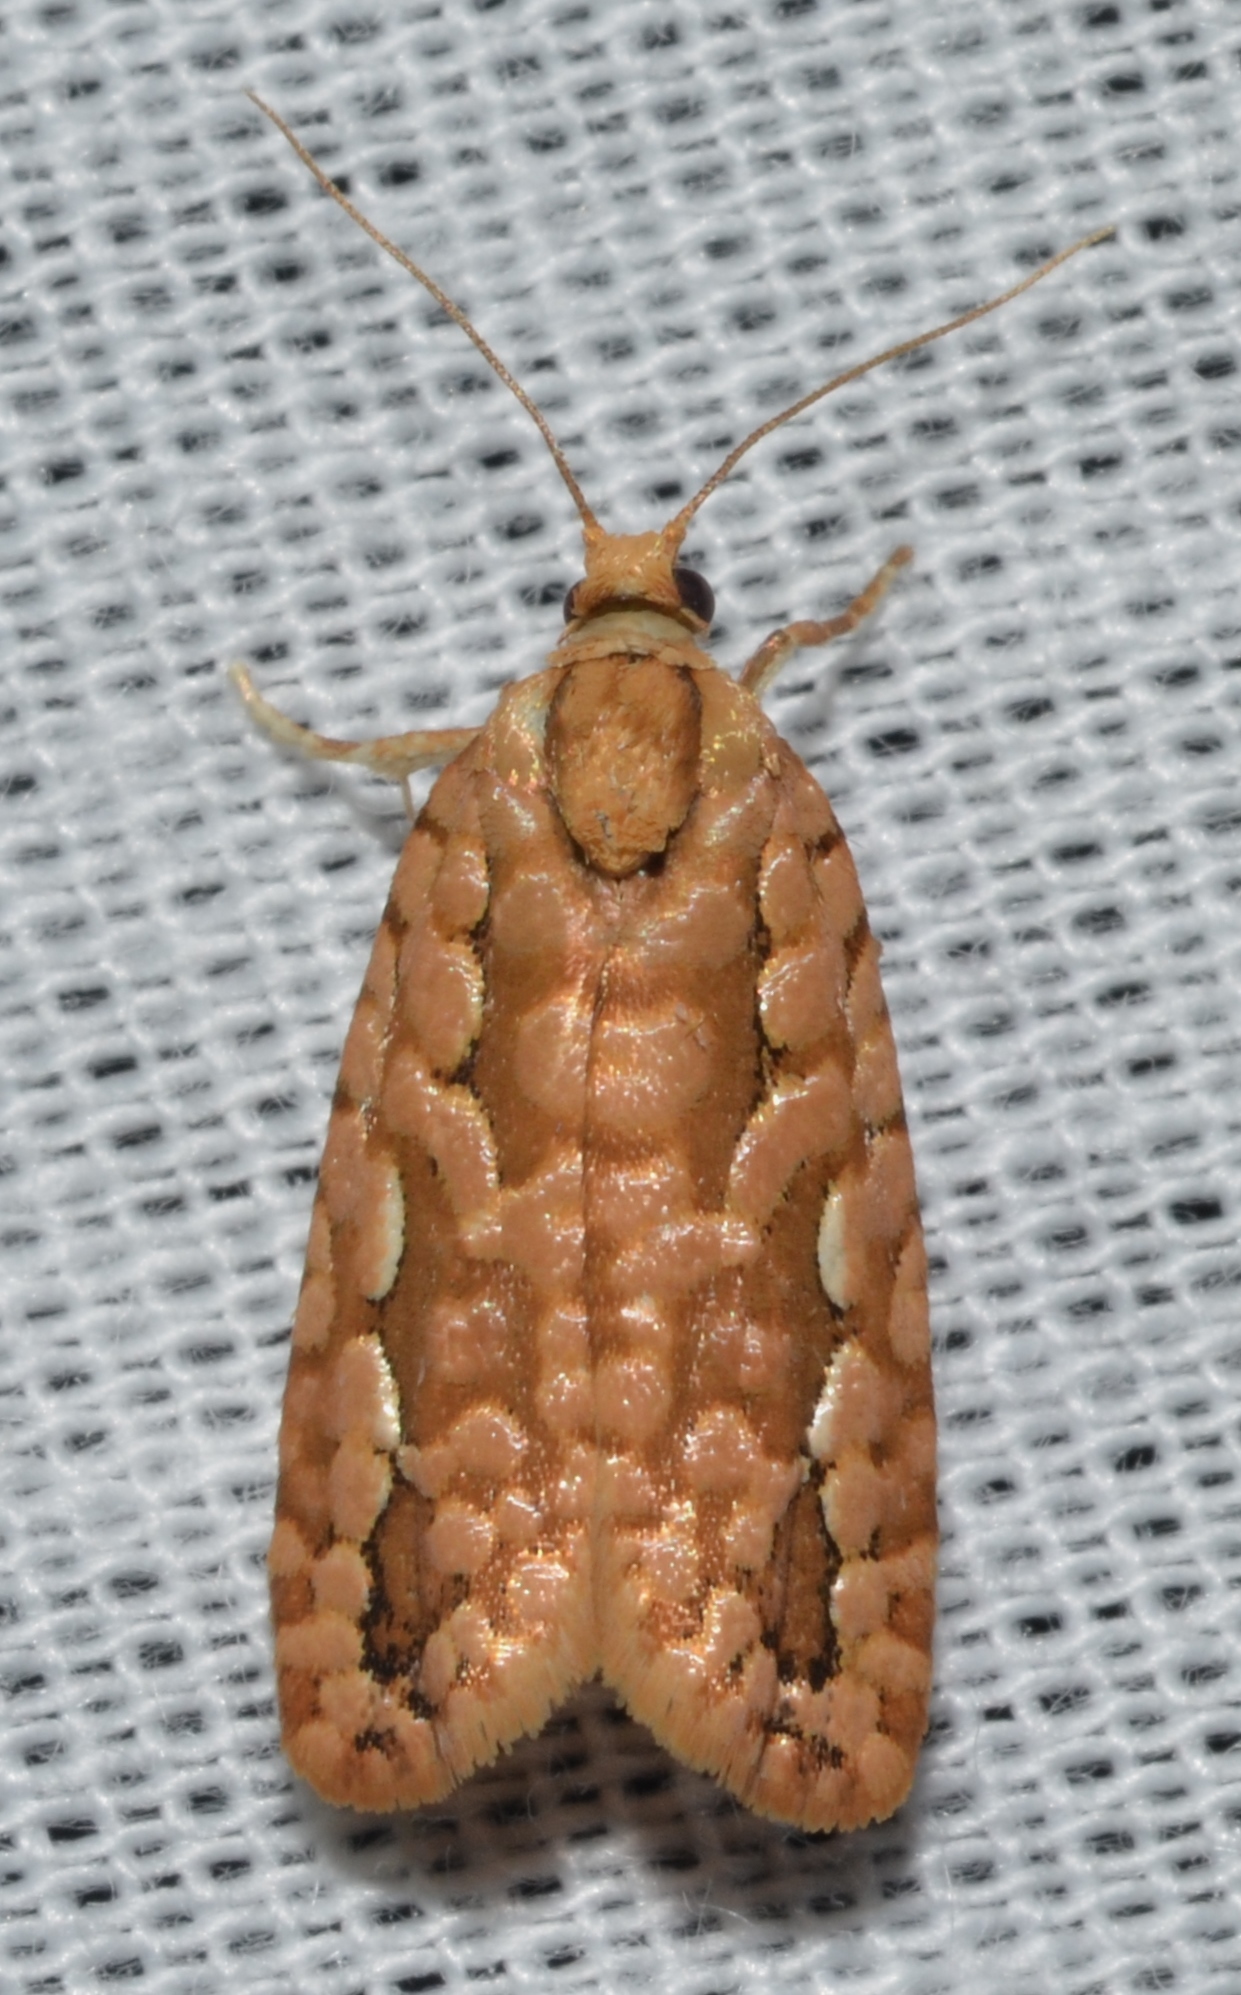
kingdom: Animalia
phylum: Arthropoda
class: Insecta
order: Lepidoptera
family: Tortricidae
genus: Diedra
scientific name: Diedra cockerellana
